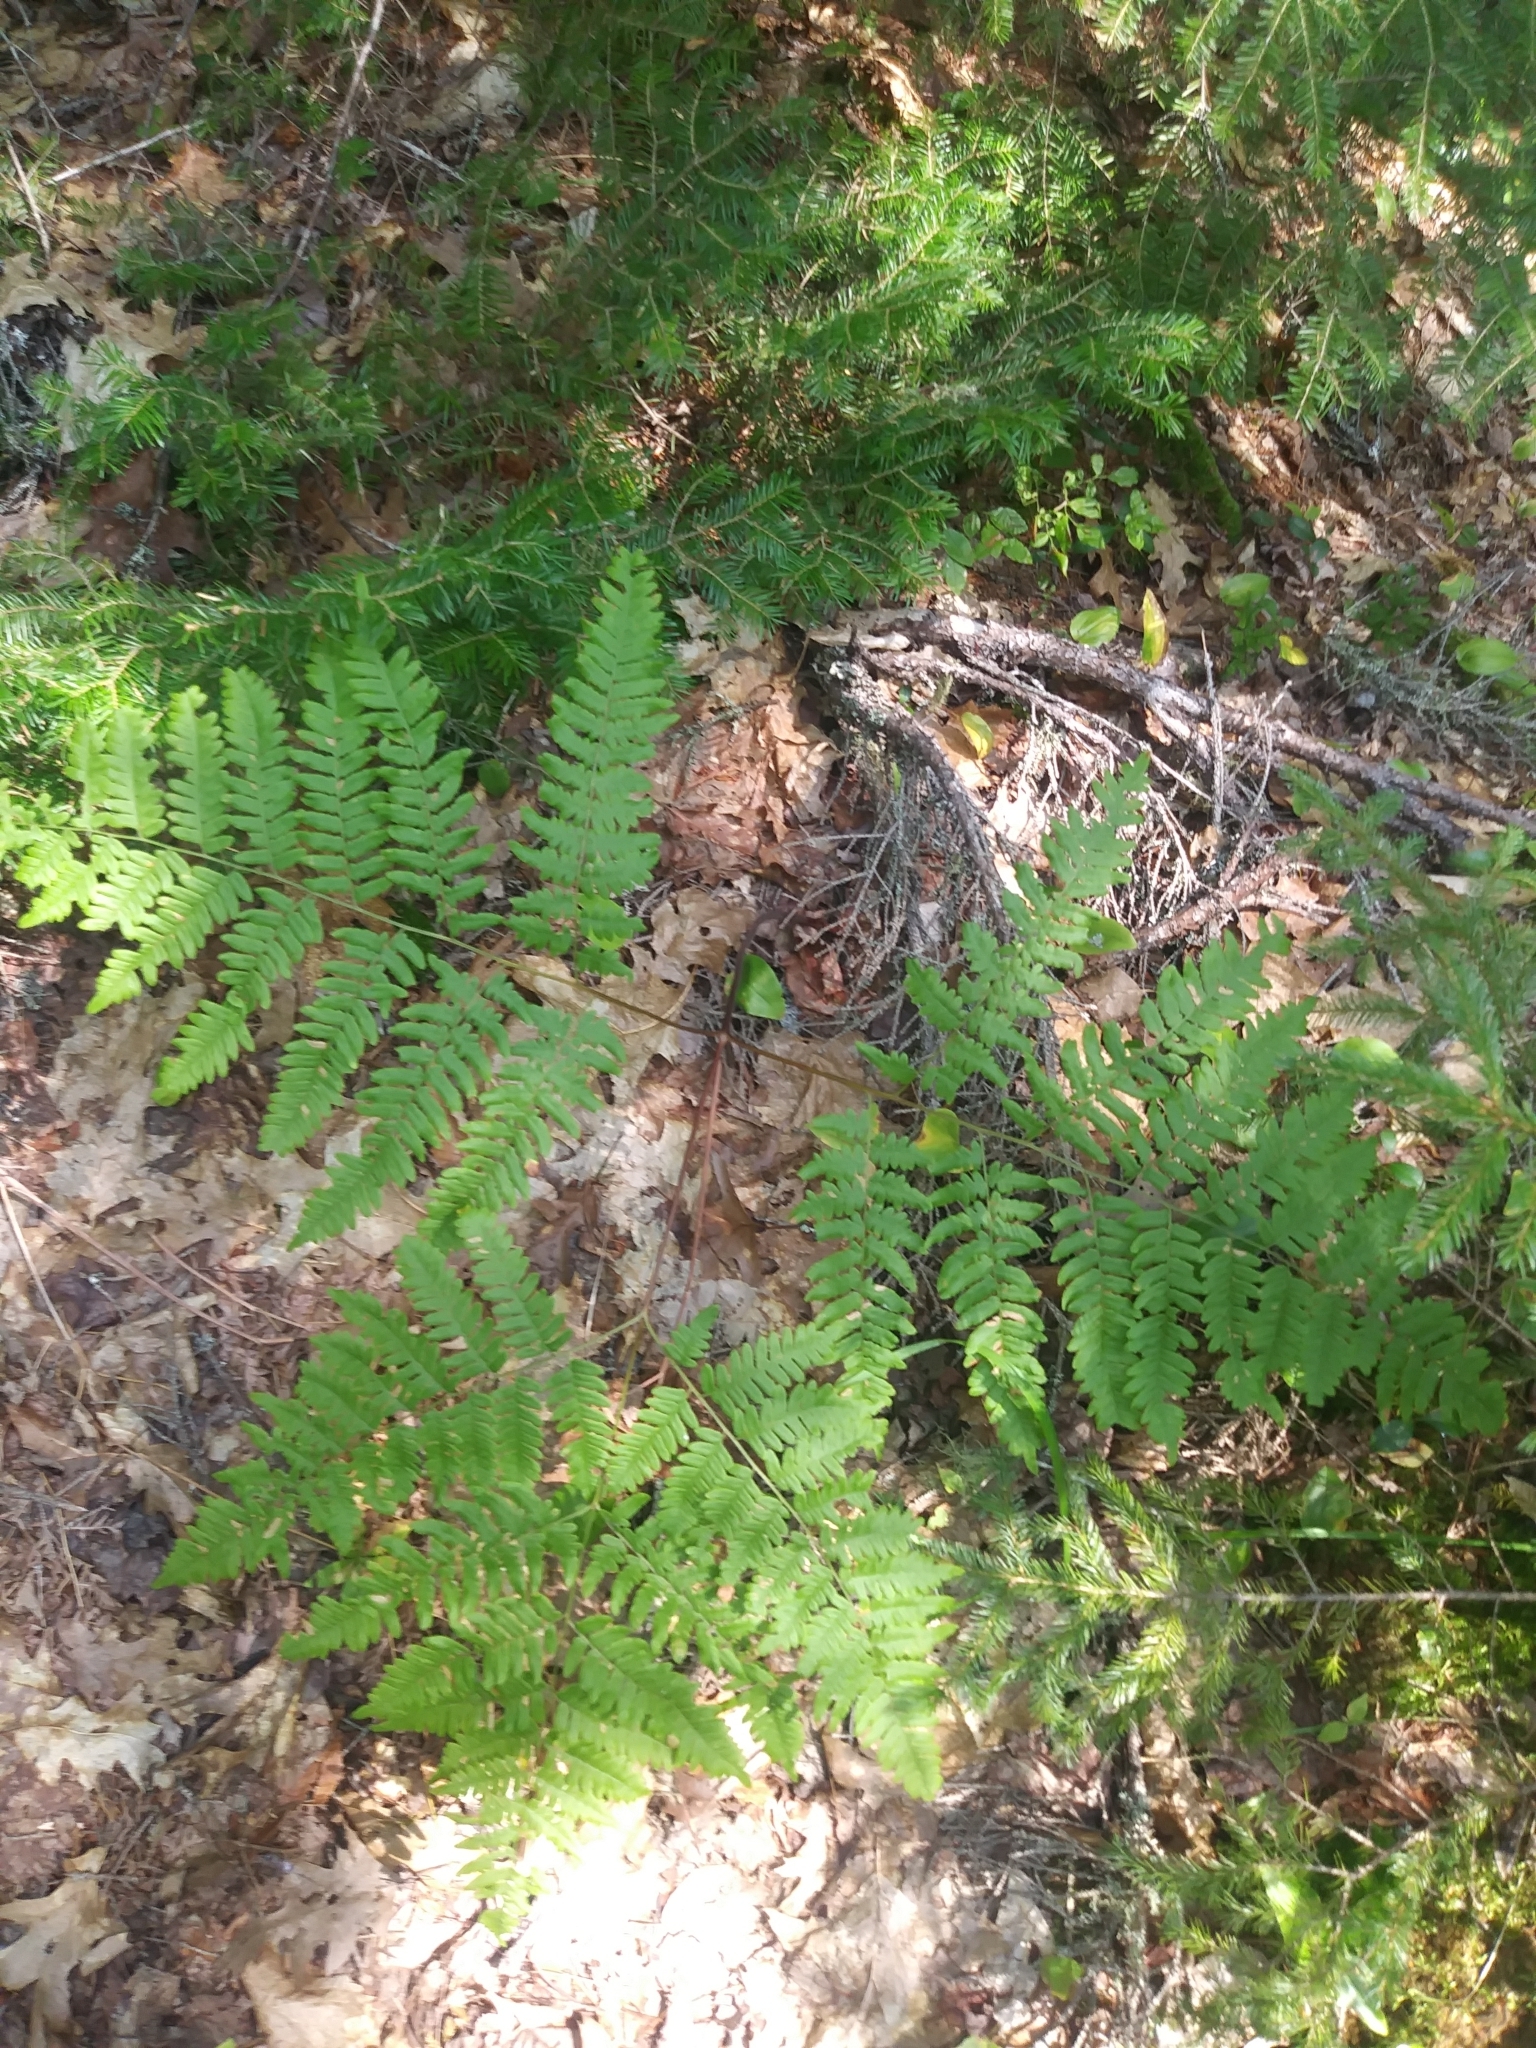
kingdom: Plantae
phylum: Tracheophyta
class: Polypodiopsida
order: Polypodiales
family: Dennstaedtiaceae
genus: Pteridium
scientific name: Pteridium aquilinum
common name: Bracken
